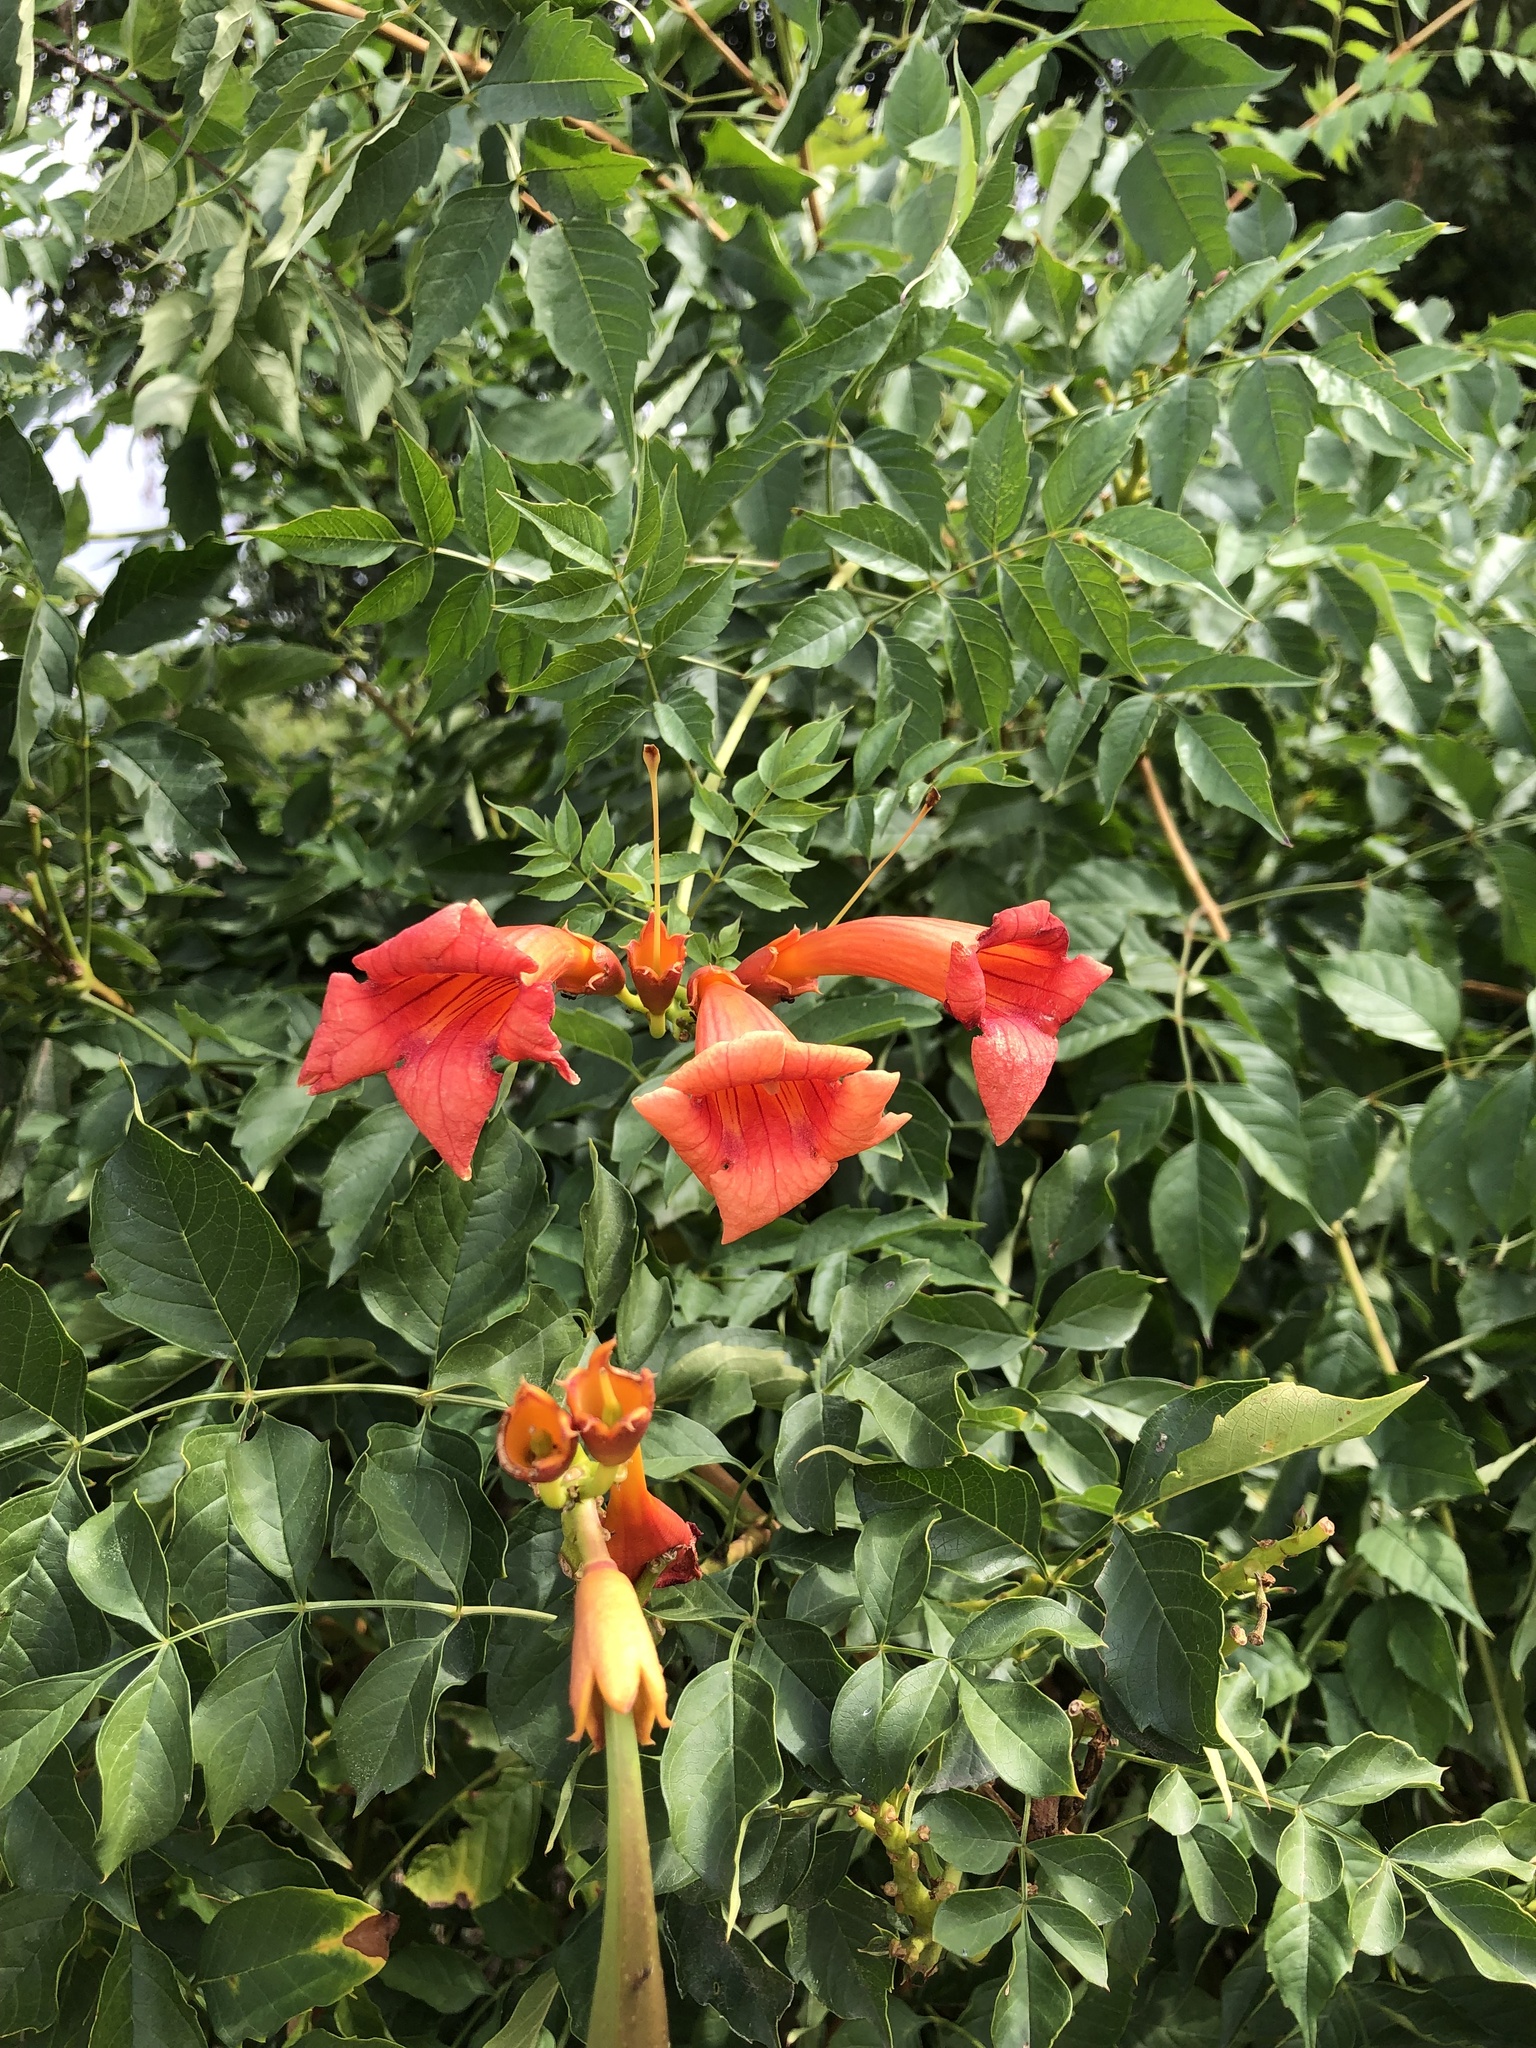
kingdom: Plantae
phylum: Tracheophyta
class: Magnoliopsida
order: Lamiales
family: Bignoniaceae
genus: Campsis
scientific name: Campsis radicans
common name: Trumpet-creeper
